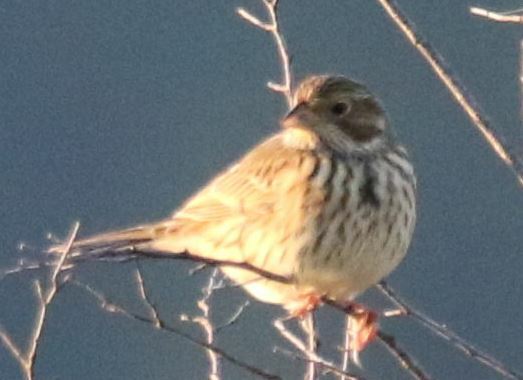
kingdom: Animalia
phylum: Chordata
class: Aves
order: Passeriformes
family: Emberizidae
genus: Emberiza
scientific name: Emberiza calandra
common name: Corn bunting
